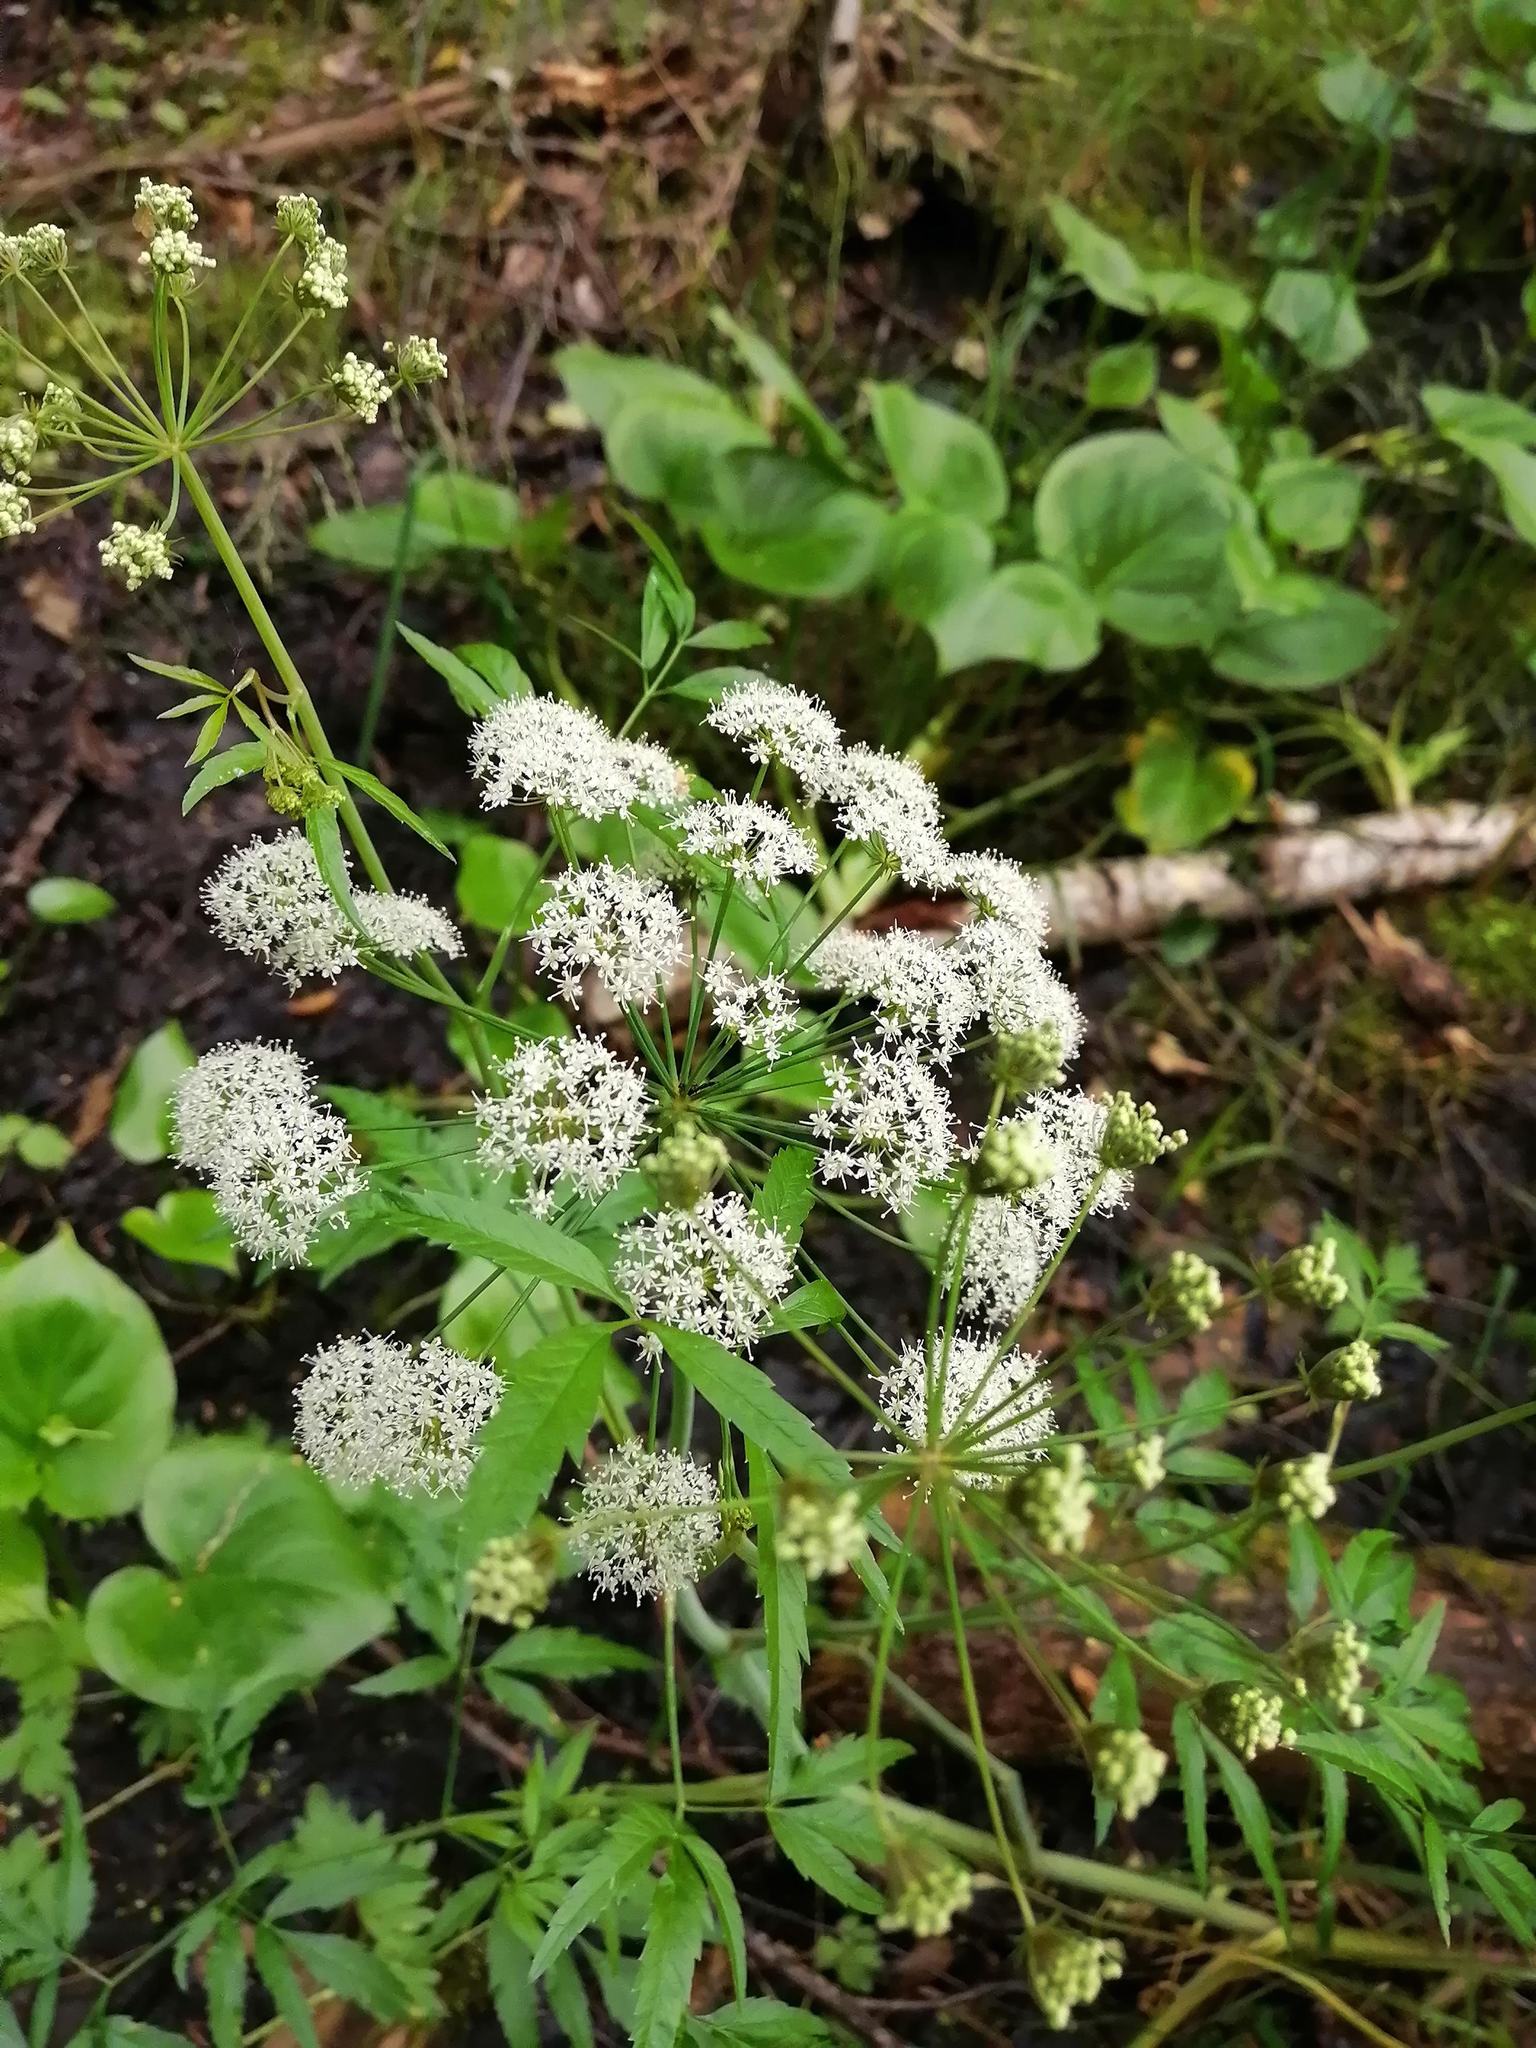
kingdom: Plantae
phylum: Tracheophyta
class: Magnoliopsida
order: Apiales
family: Apiaceae
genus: Cicuta
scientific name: Cicuta virosa
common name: Cowbane
